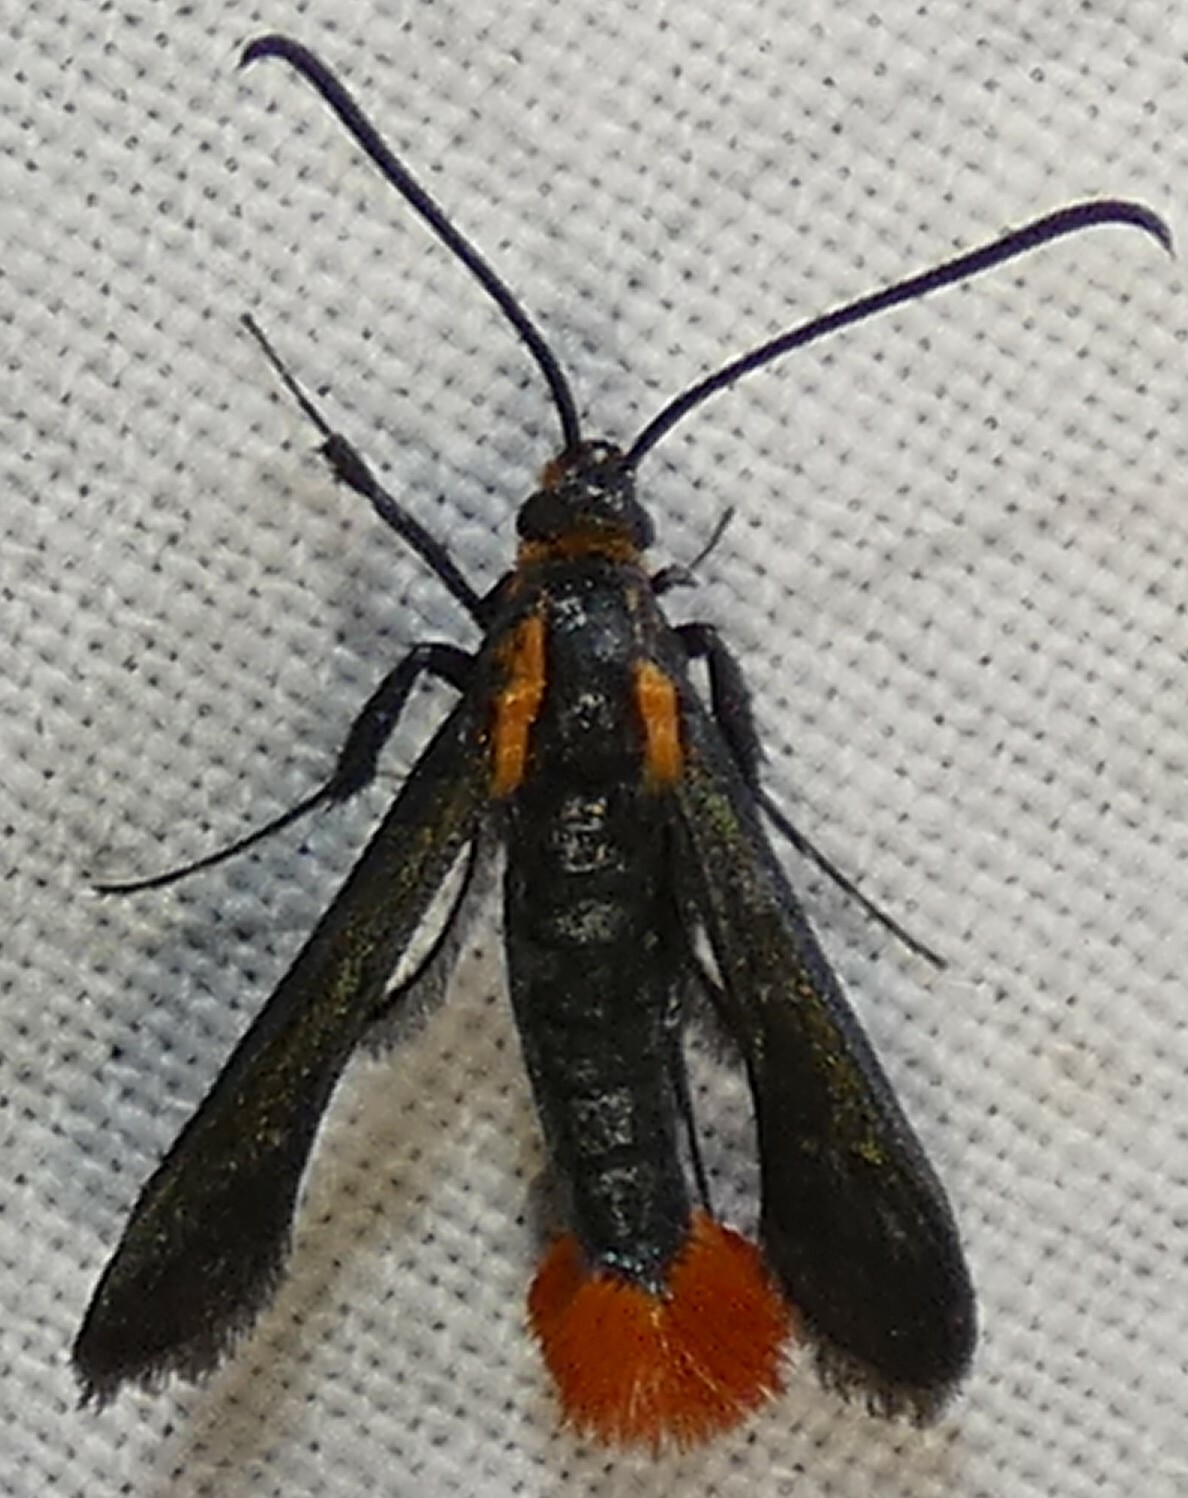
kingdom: Animalia
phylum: Arthropoda
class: Insecta
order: Lepidoptera
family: Sesiidae
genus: Synanthedon
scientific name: Synanthedon acerni
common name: Maple callus borer moth
